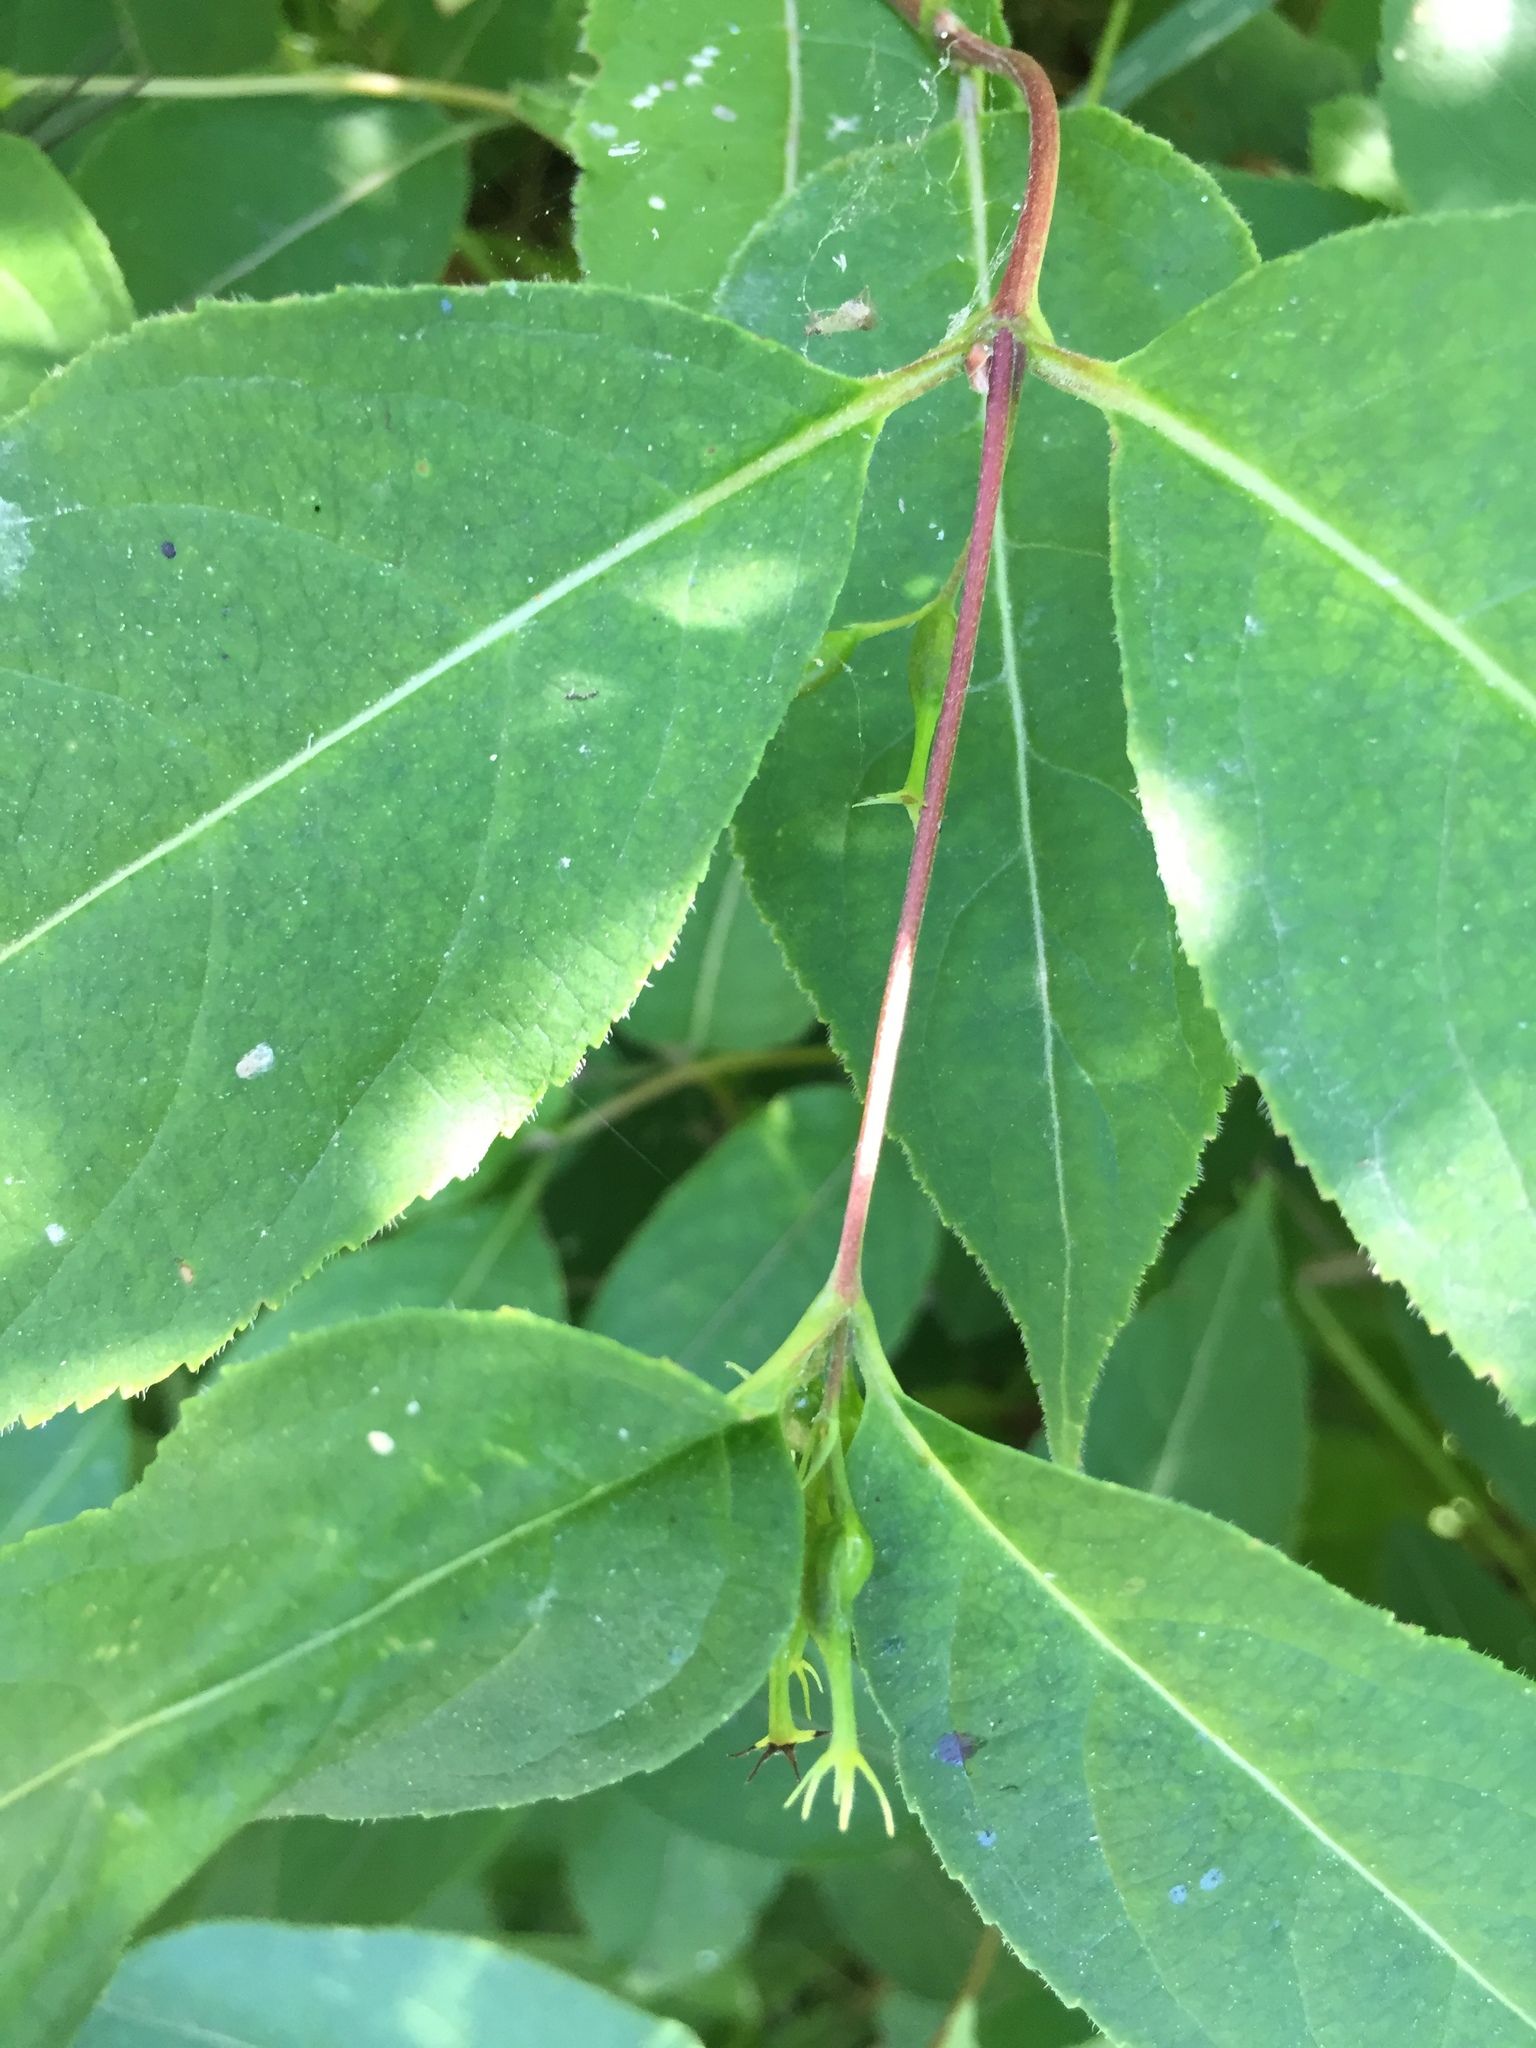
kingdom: Plantae
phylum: Tracheophyta
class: Magnoliopsida
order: Dipsacales
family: Caprifoliaceae
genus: Diervilla
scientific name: Diervilla lonicera
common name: Bush-honeysuckle
